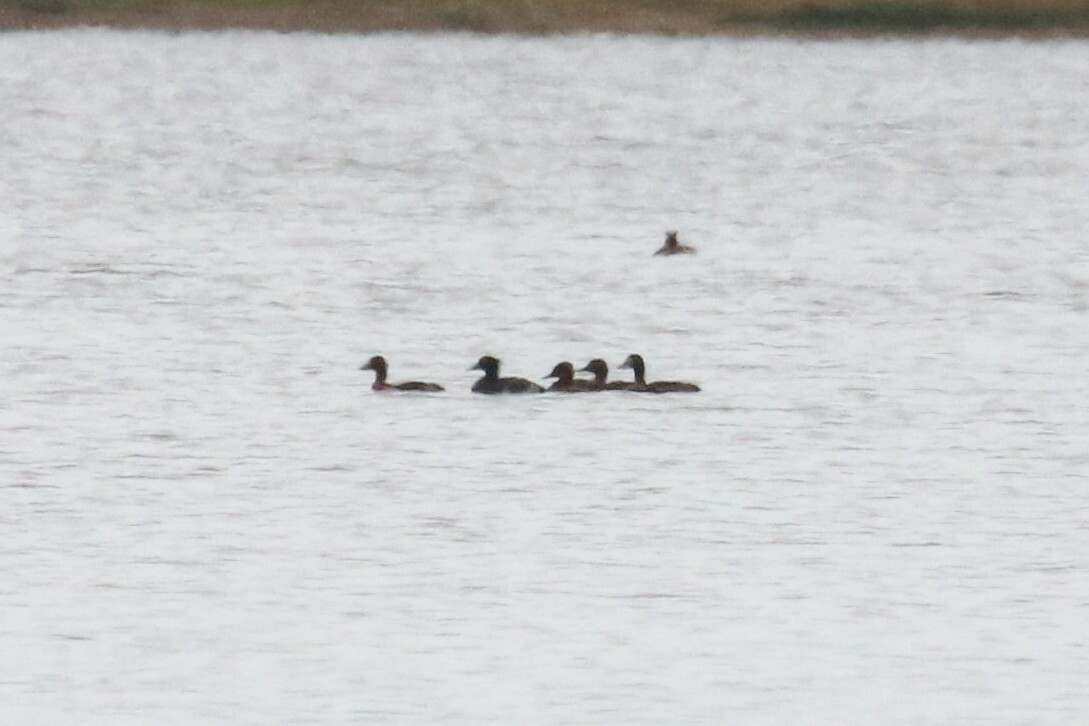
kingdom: Animalia
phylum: Chordata
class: Aves
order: Anseriformes
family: Anatidae
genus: Aythya
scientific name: Aythya fuligula
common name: Tufted duck
